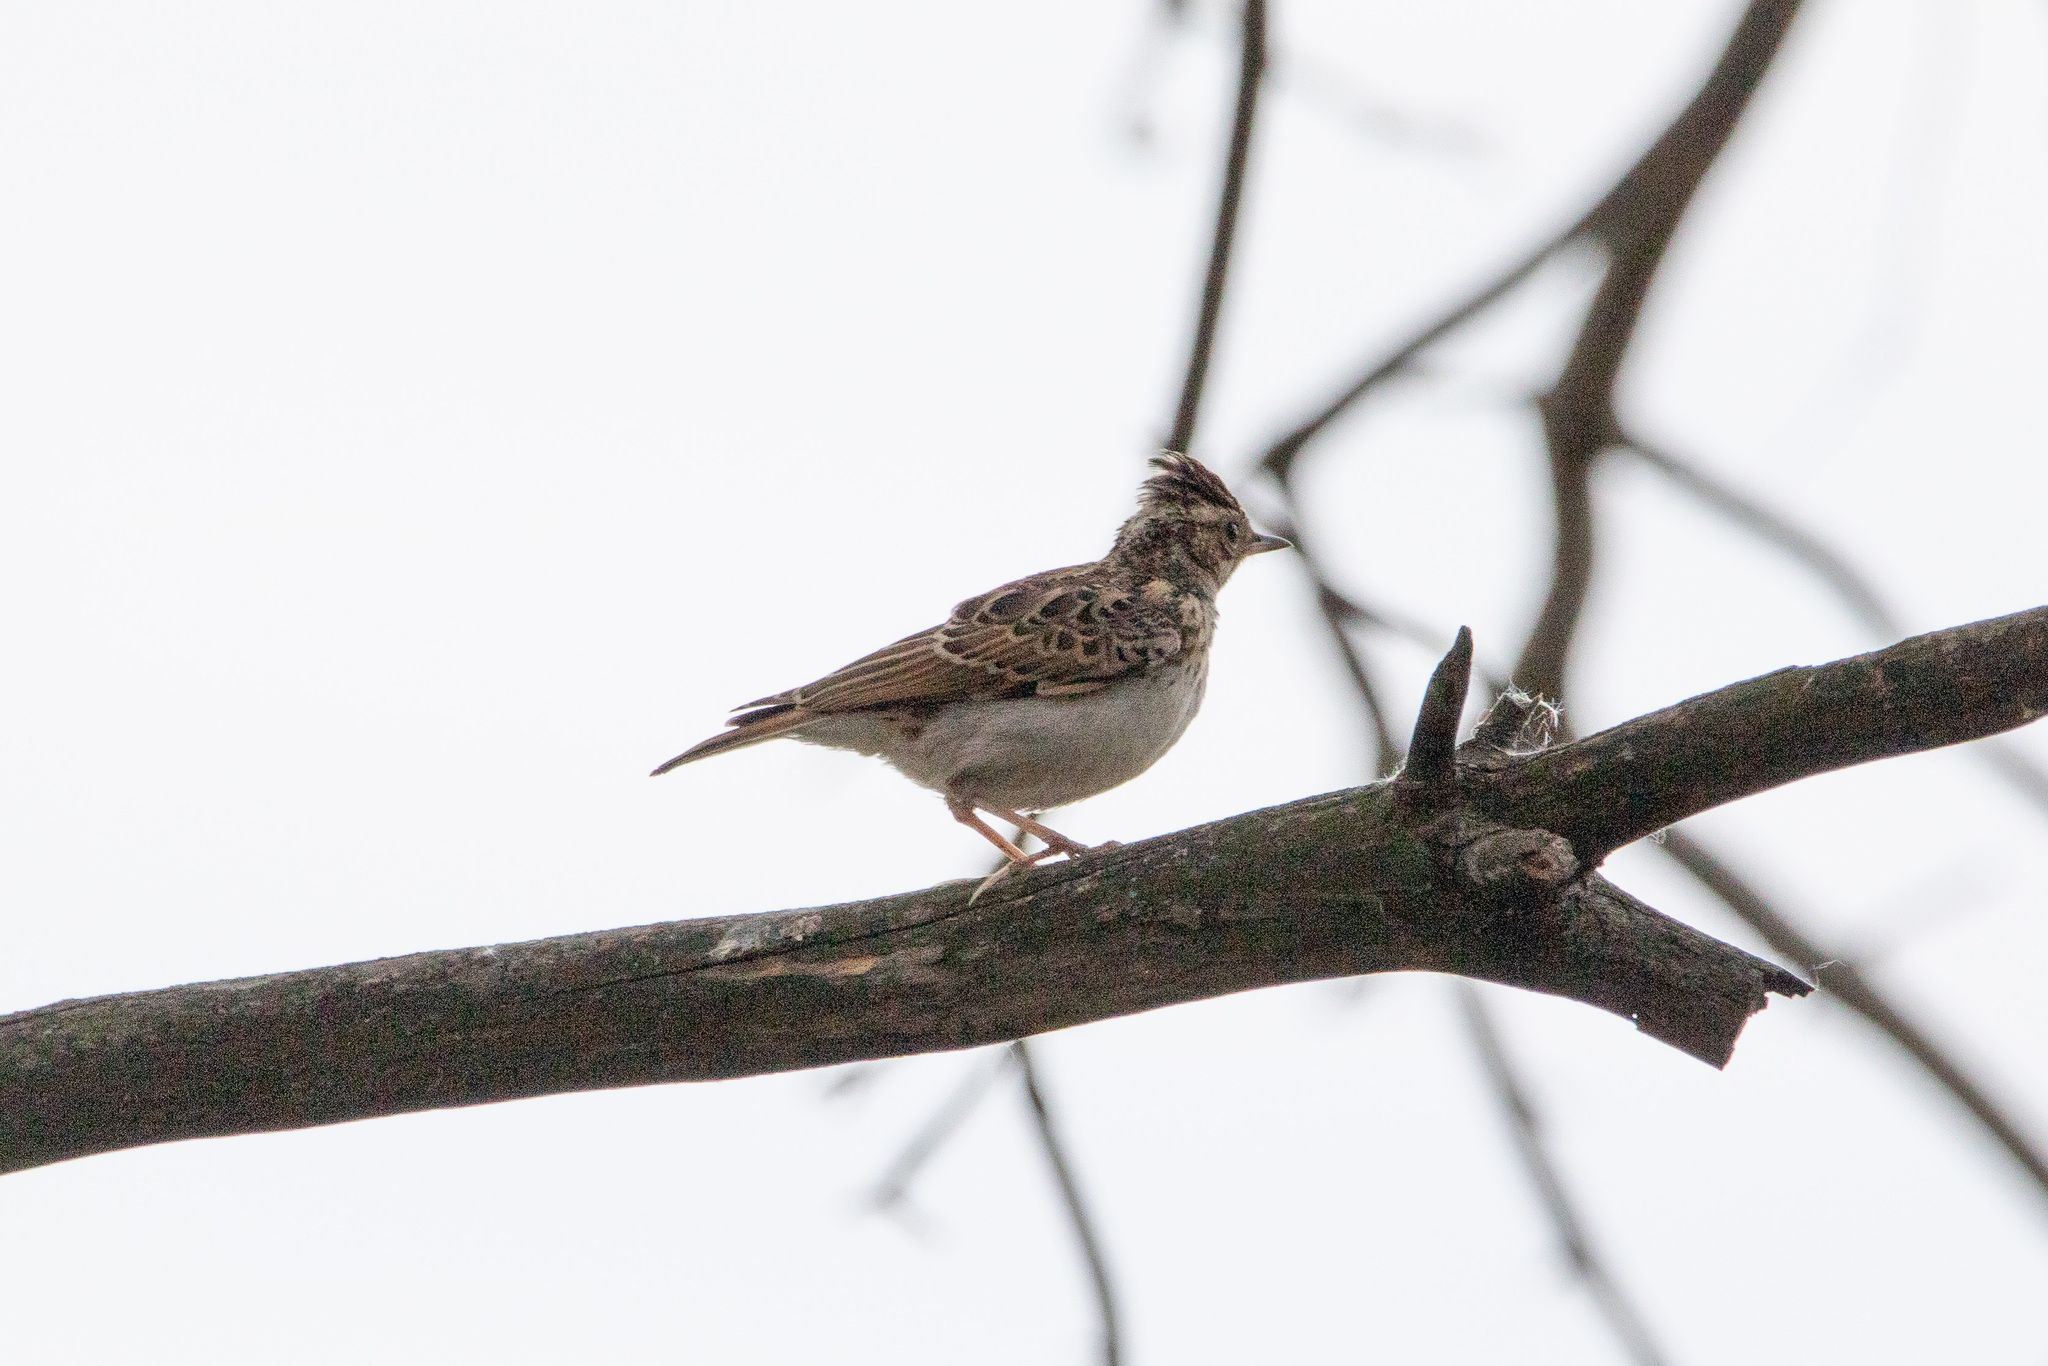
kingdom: Animalia
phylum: Chordata
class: Aves
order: Passeriformes
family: Alaudidae
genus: Lullula
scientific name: Lullula arborea
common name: Woodlark
